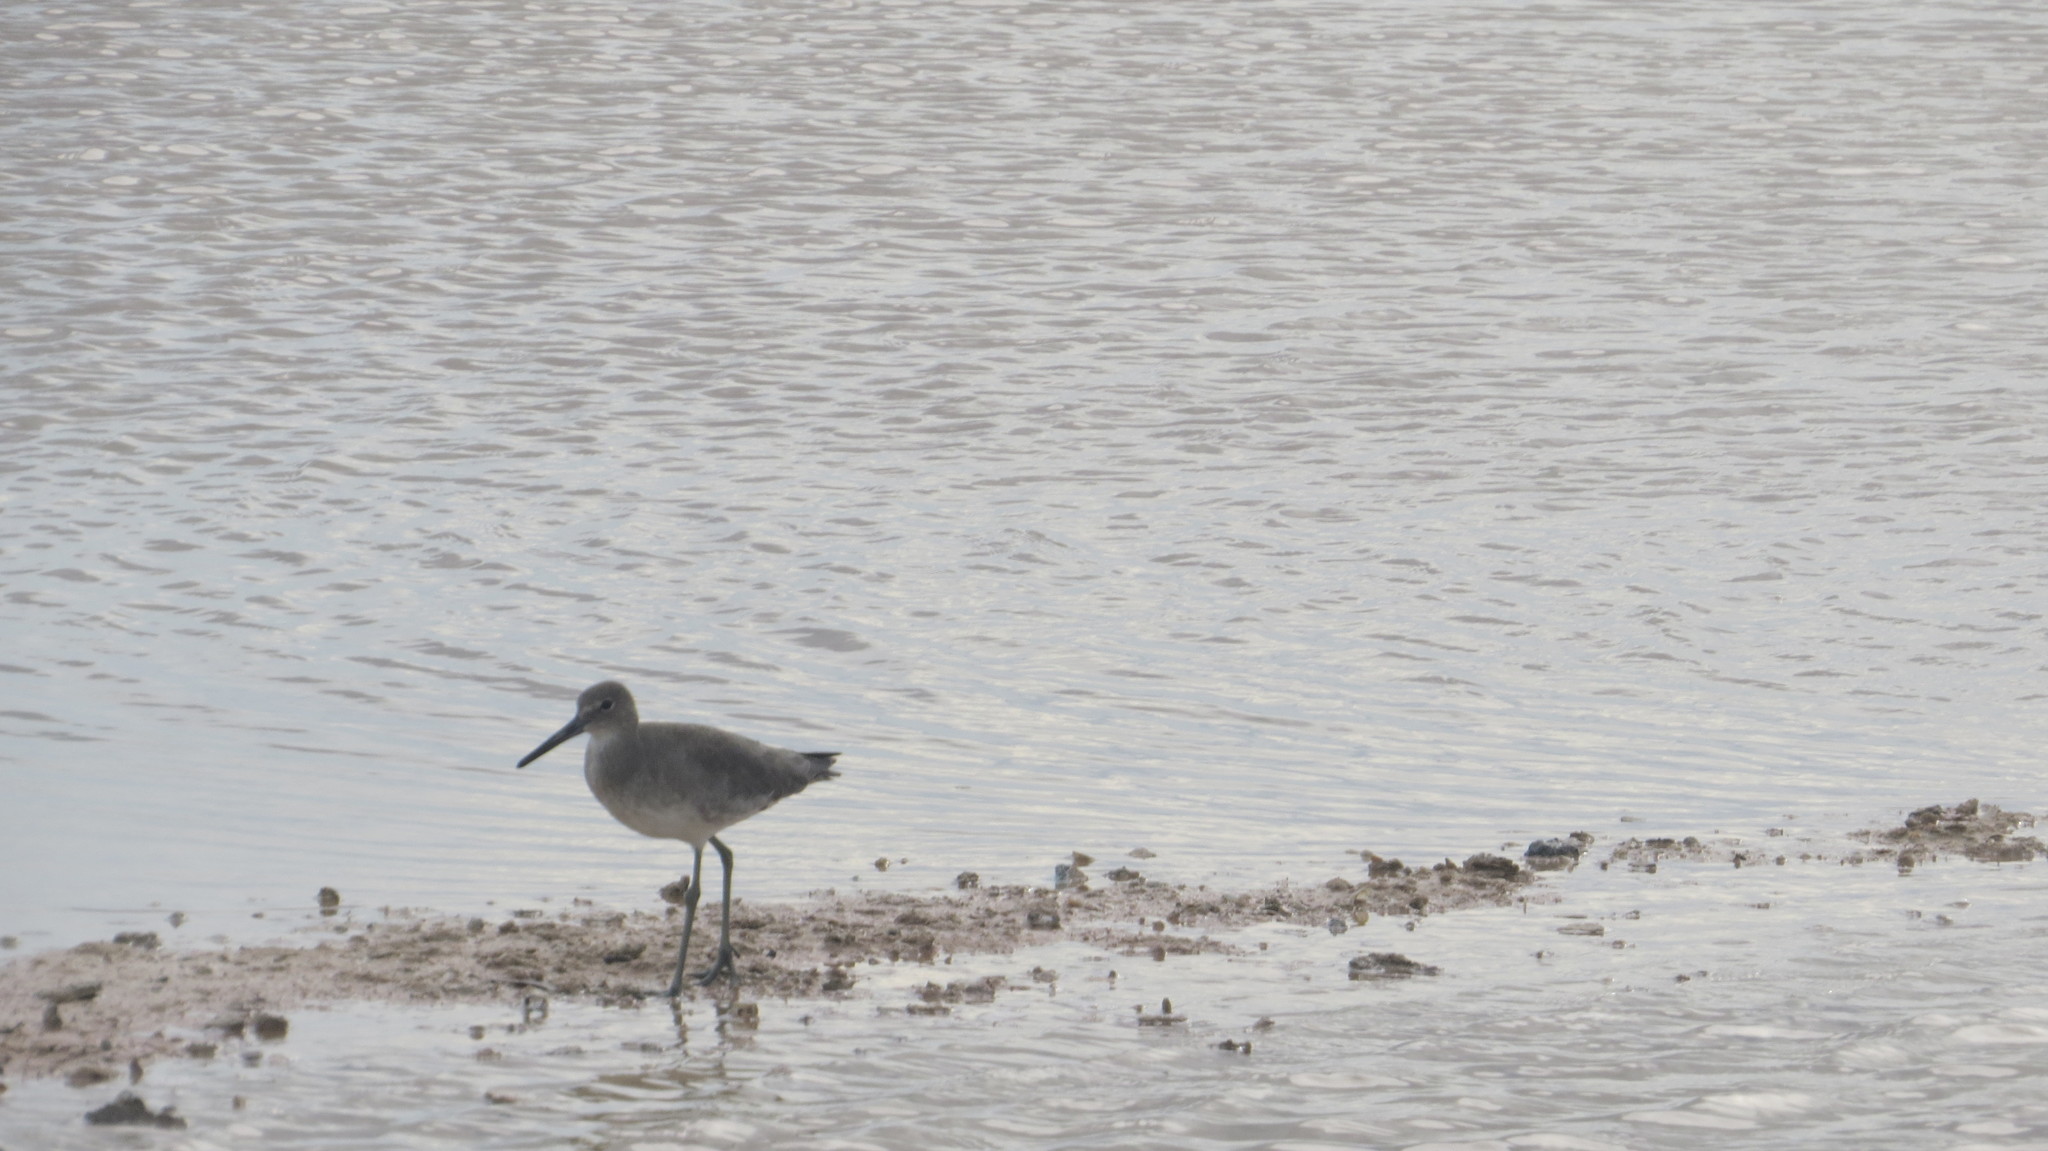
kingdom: Animalia
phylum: Chordata
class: Aves
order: Charadriiformes
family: Scolopacidae
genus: Tringa
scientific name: Tringa semipalmata
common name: Willet
